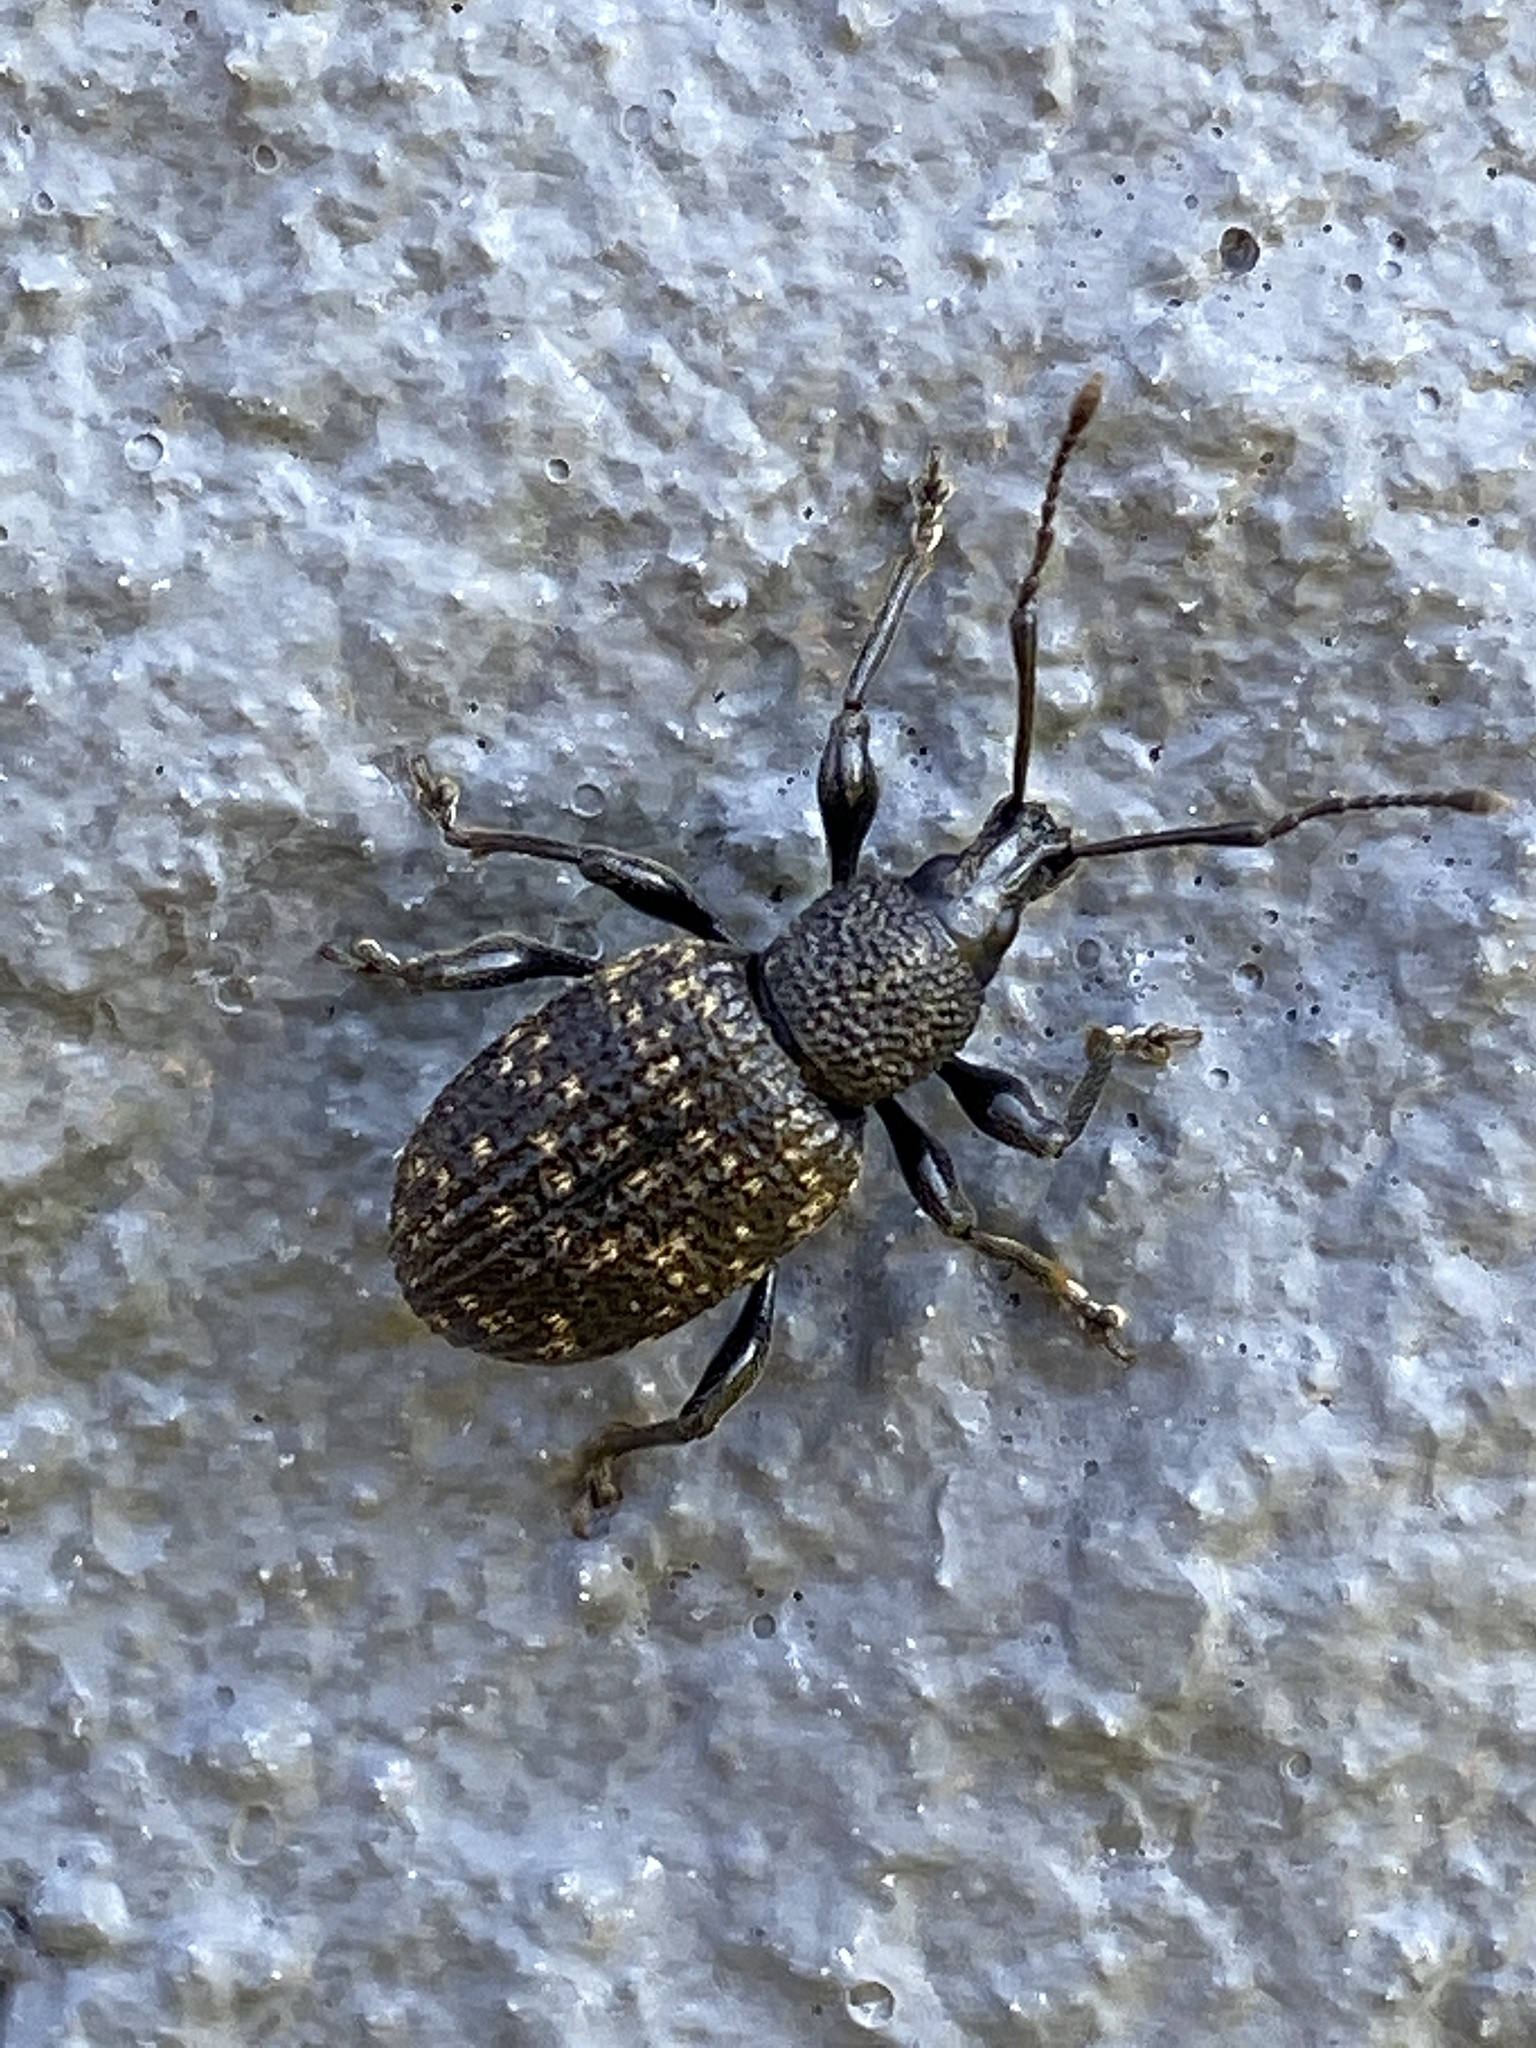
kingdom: Animalia
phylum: Arthropoda
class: Insecta
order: Coleoptera
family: Curculionidae
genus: Otiorhynchus
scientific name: Otiorhynchus sulcatus
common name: Black vine weevil
